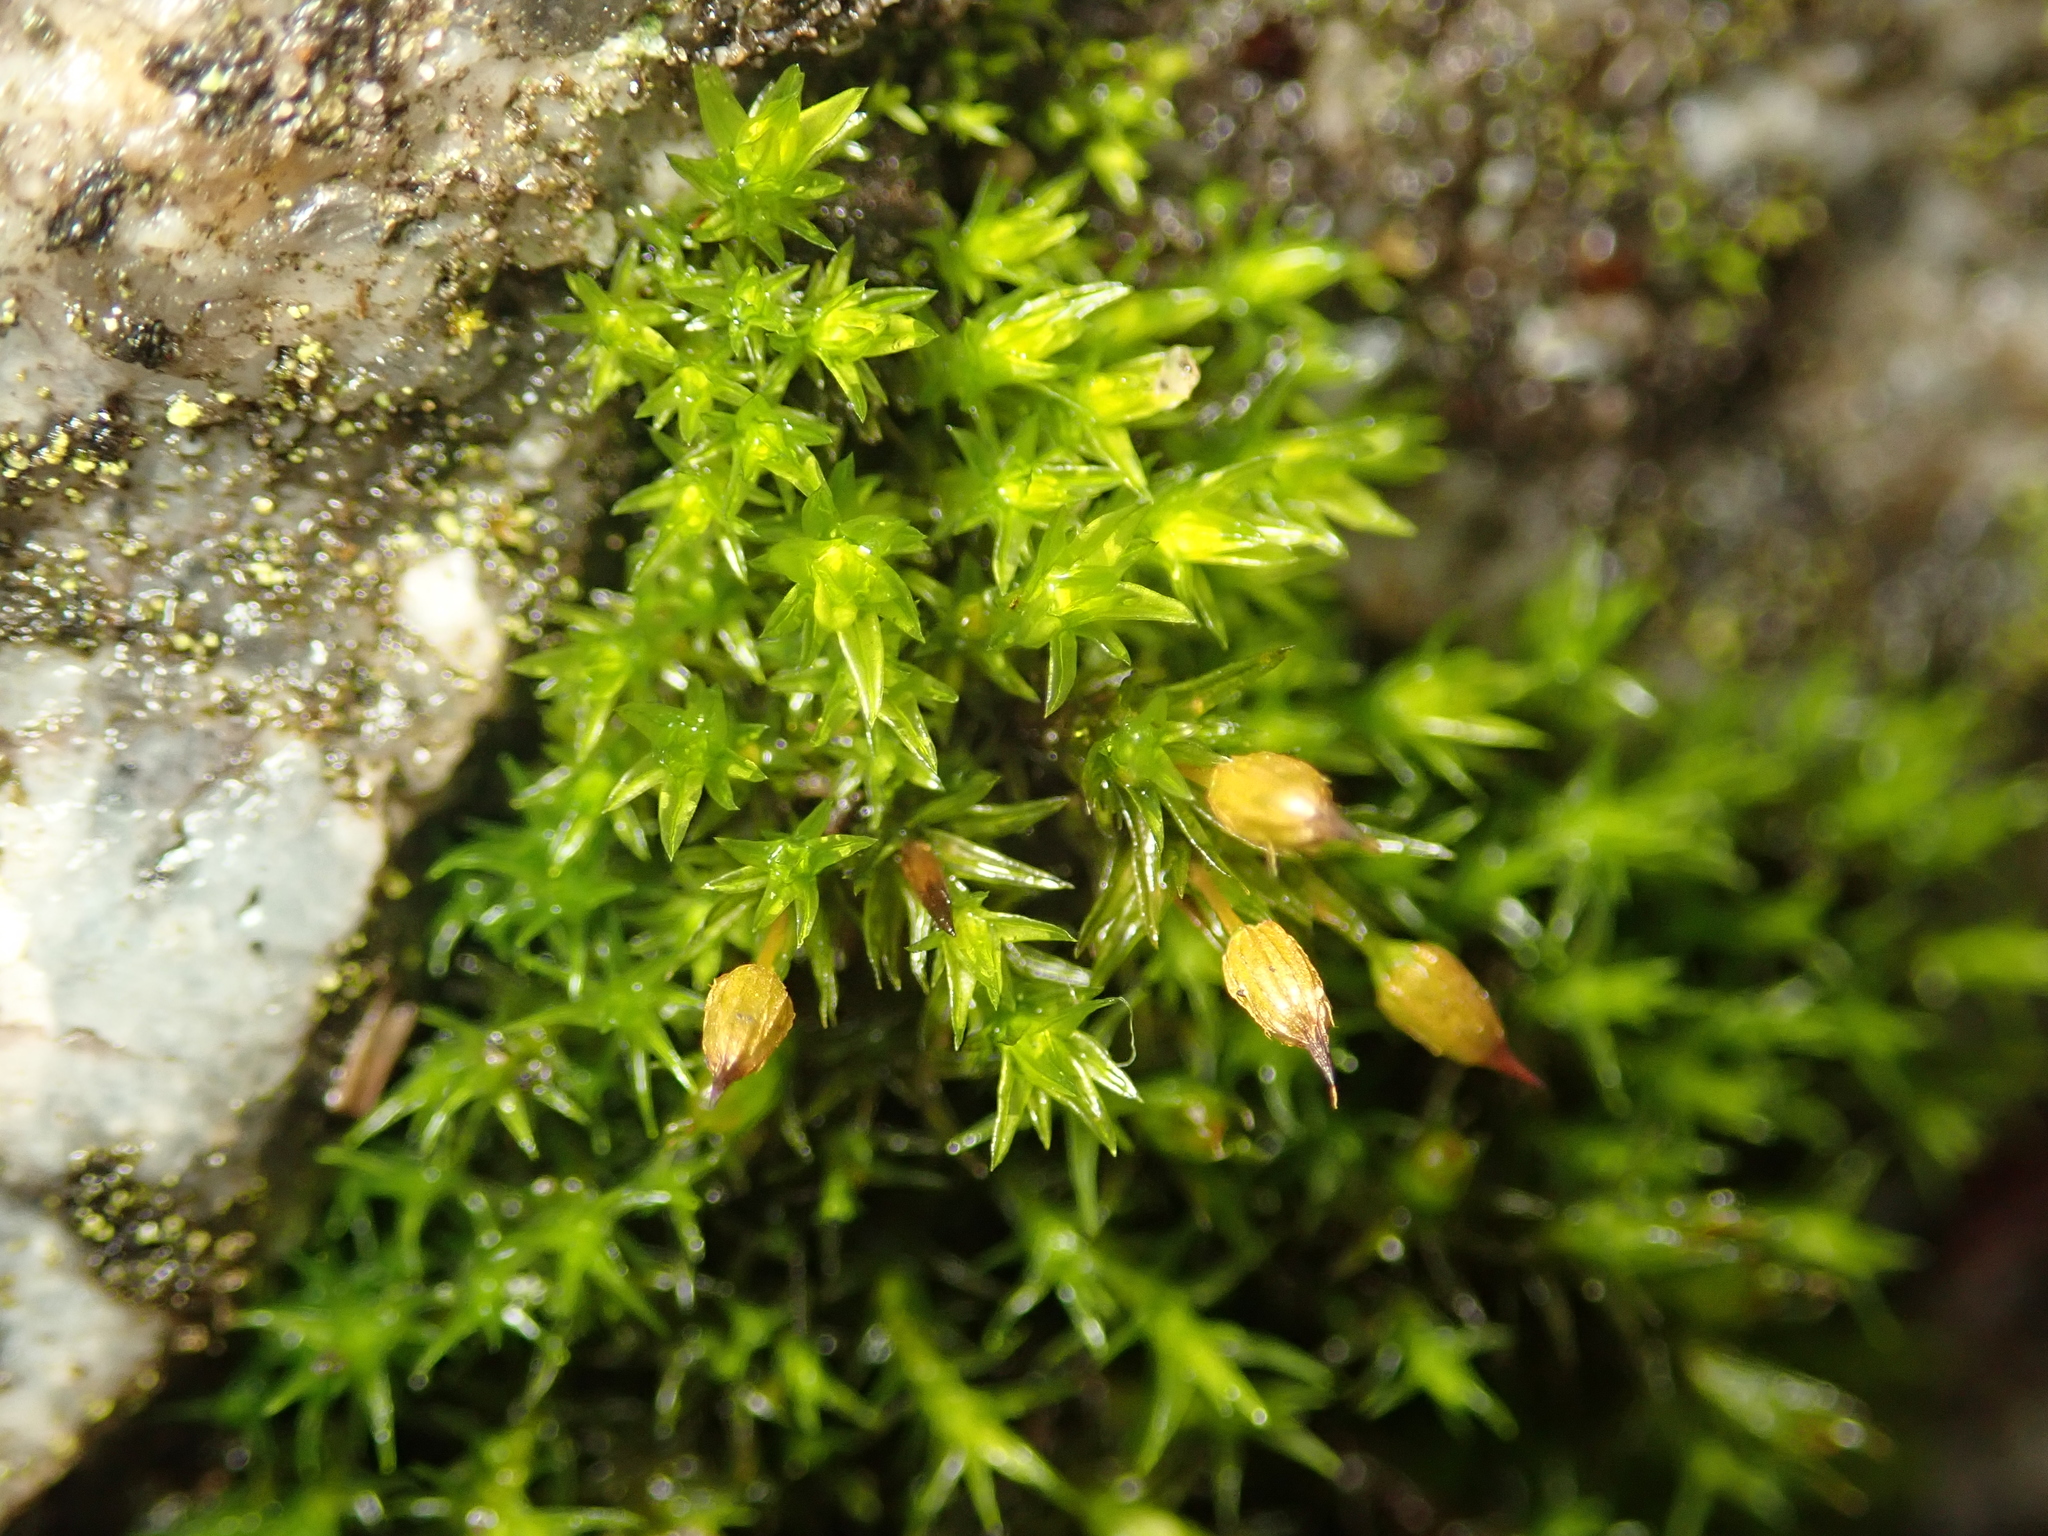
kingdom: Plantae
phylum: Bryophyta
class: Bryopsida
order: Orthotrichales
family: Orthotrichaceae
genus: Orthotrichum
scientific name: Orthotrichum anomalum
